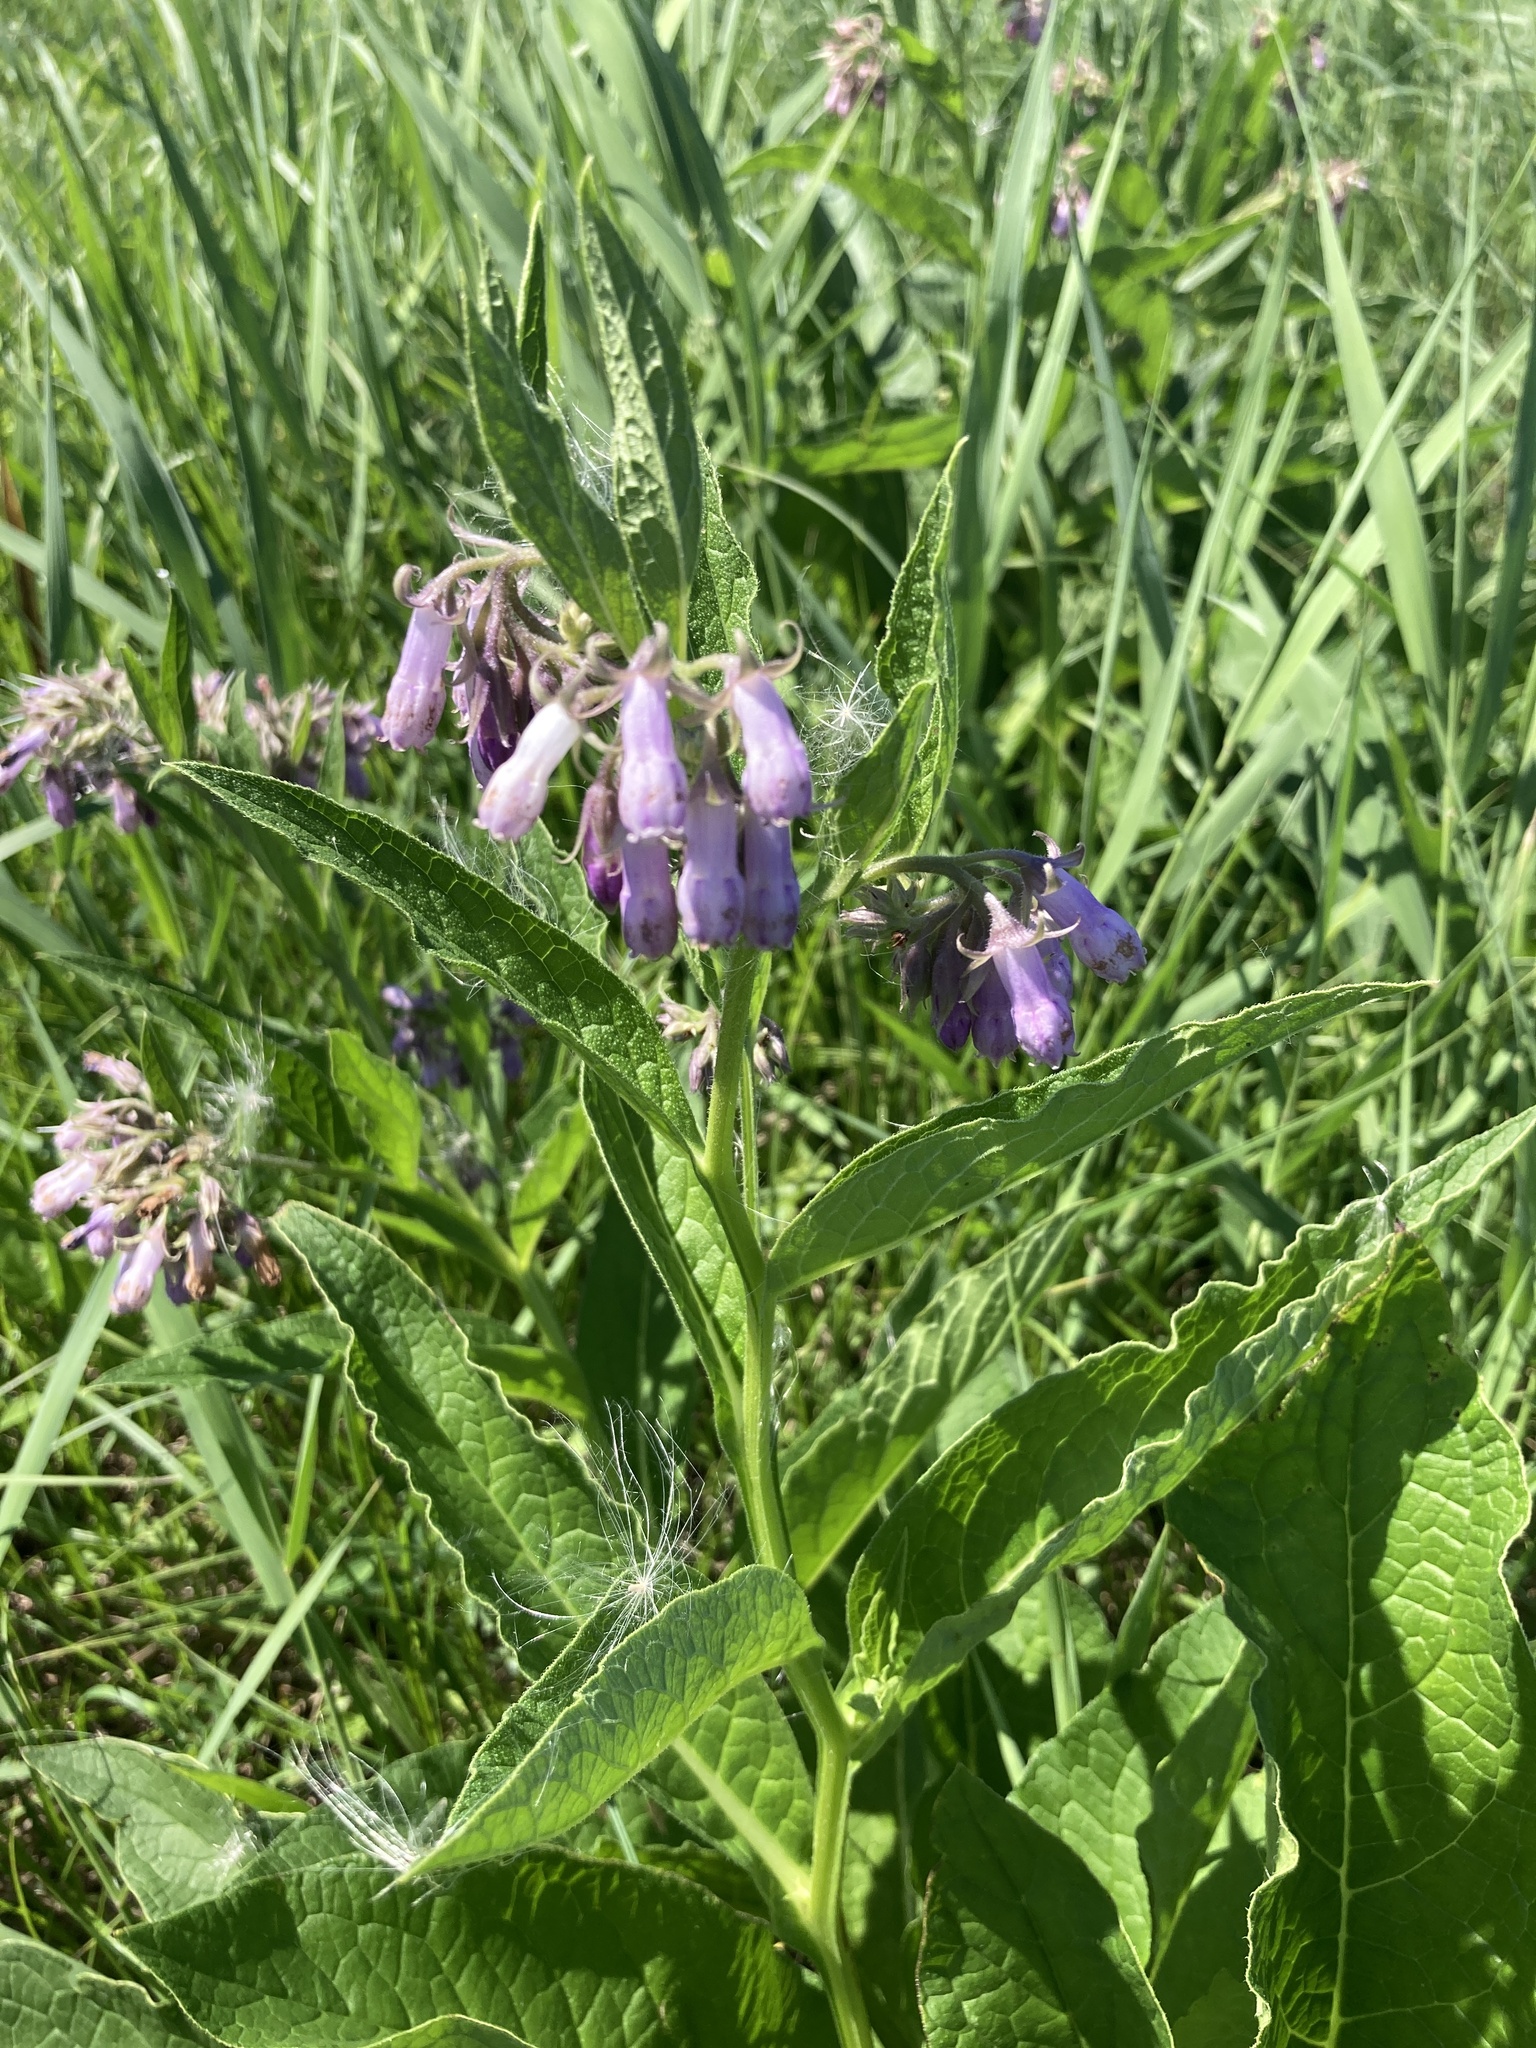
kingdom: Plantae
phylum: Tracheophyta
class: Magnoliopsida
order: Boraginales
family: Boraginaceae
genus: Symphytum
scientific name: Symphytum officinale
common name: Common comfrey
